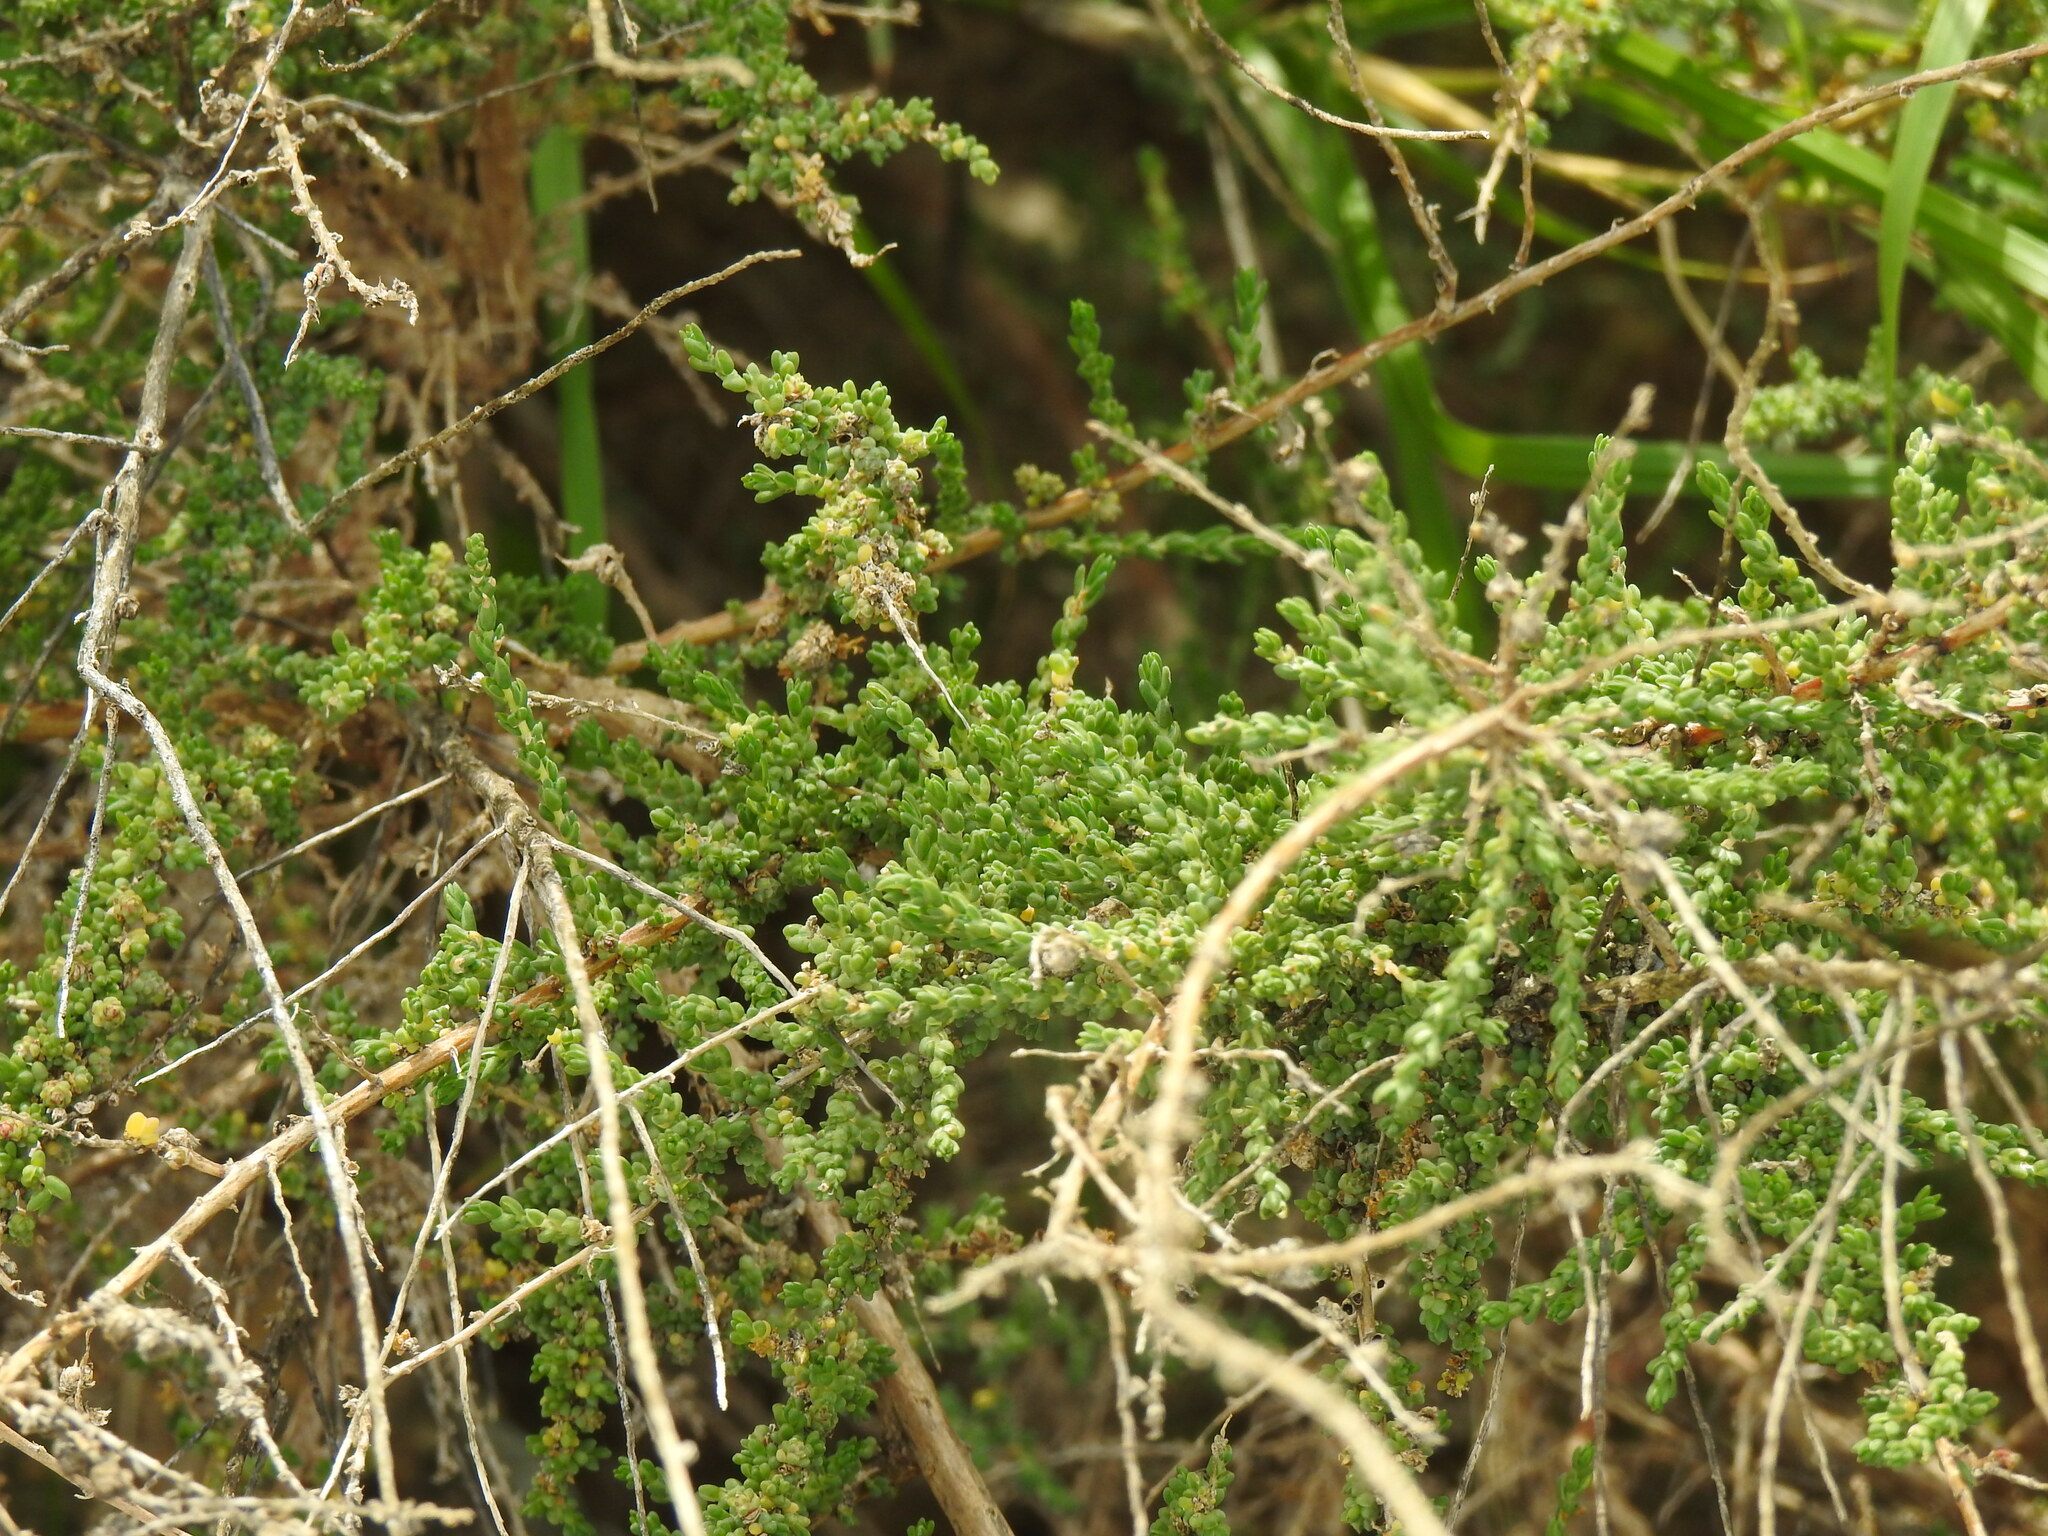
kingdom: Plantae
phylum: Tracheophyta
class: Magnoliopsida
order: Caryophyllales
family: Amaranthaceae
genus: Nitrosalsola
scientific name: Nitrosalsola vermiculata
